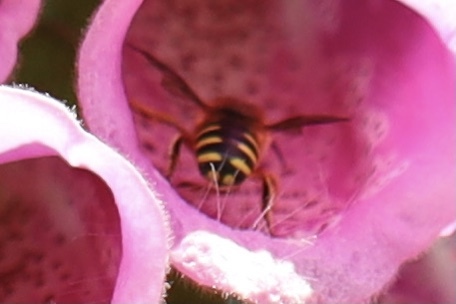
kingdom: Animalia
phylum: Arthropoda
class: Insecta
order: Hymenoptera
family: Megachilidae
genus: Anthidium
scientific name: Anthidium manicatum
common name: Wool carder bee
